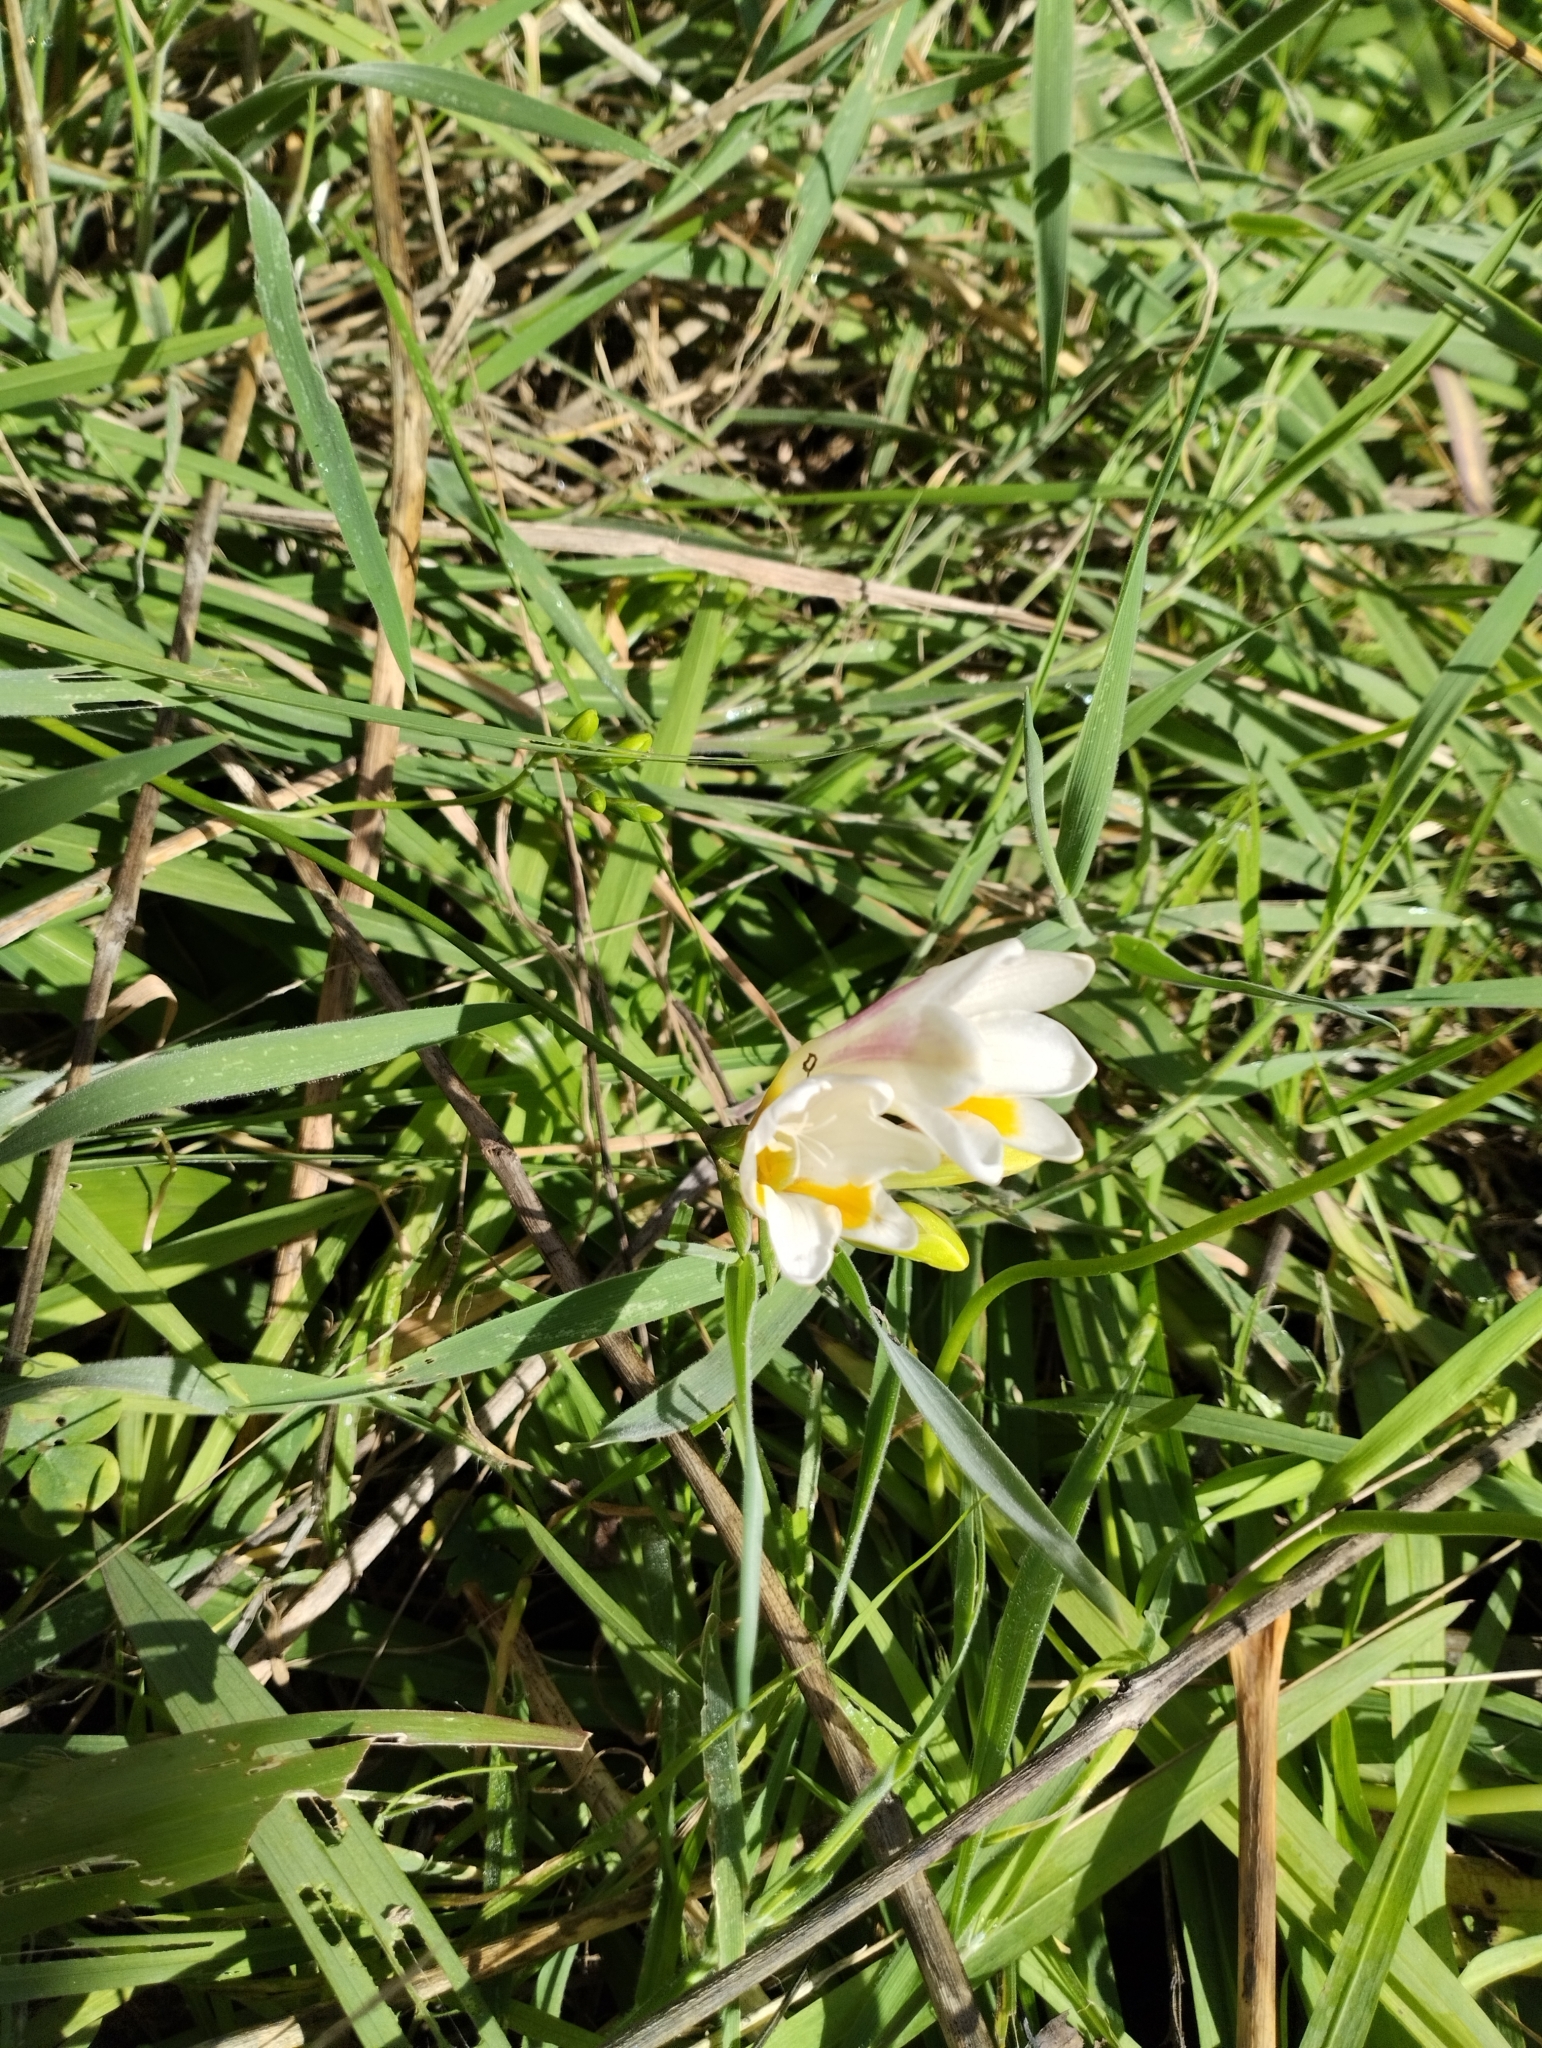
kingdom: Plantae
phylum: Tracheophyta
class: Liliopsida
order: Asparagales
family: Iridaceae
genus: Freesia
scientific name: Freesia leichtlinii
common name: Freesia
